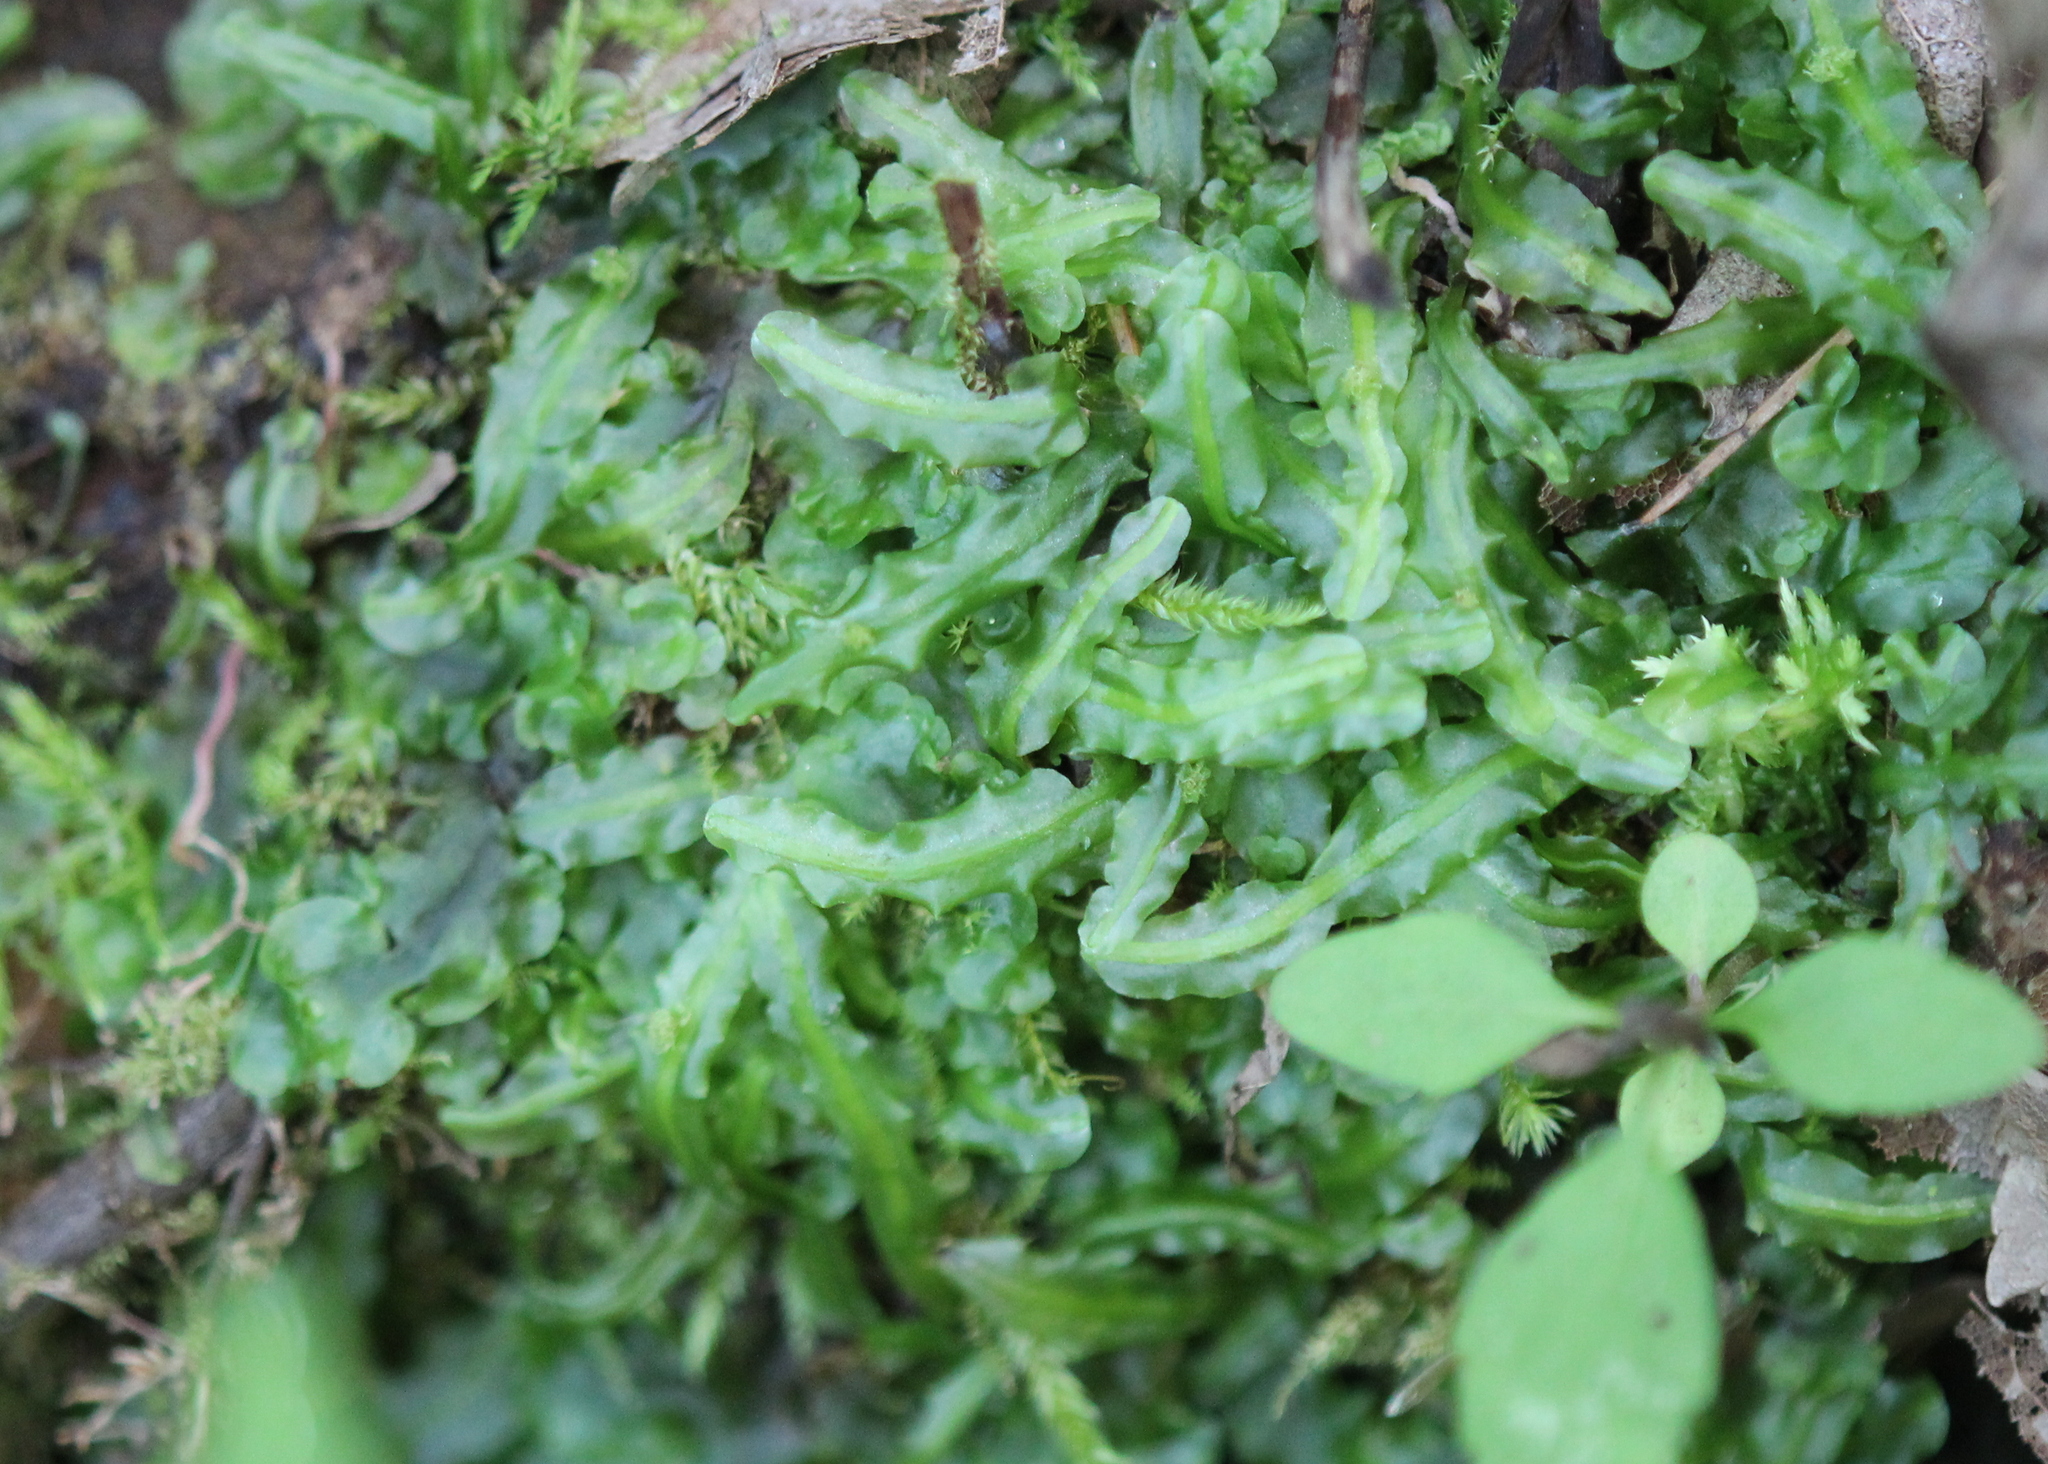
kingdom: Plantae
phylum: Marchantiophyta
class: Jungermanniopsida
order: Pallaviciniales
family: Pallaviciniaceae
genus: Pallavicinia
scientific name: Pallavicinia lyellii
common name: Veilwort
